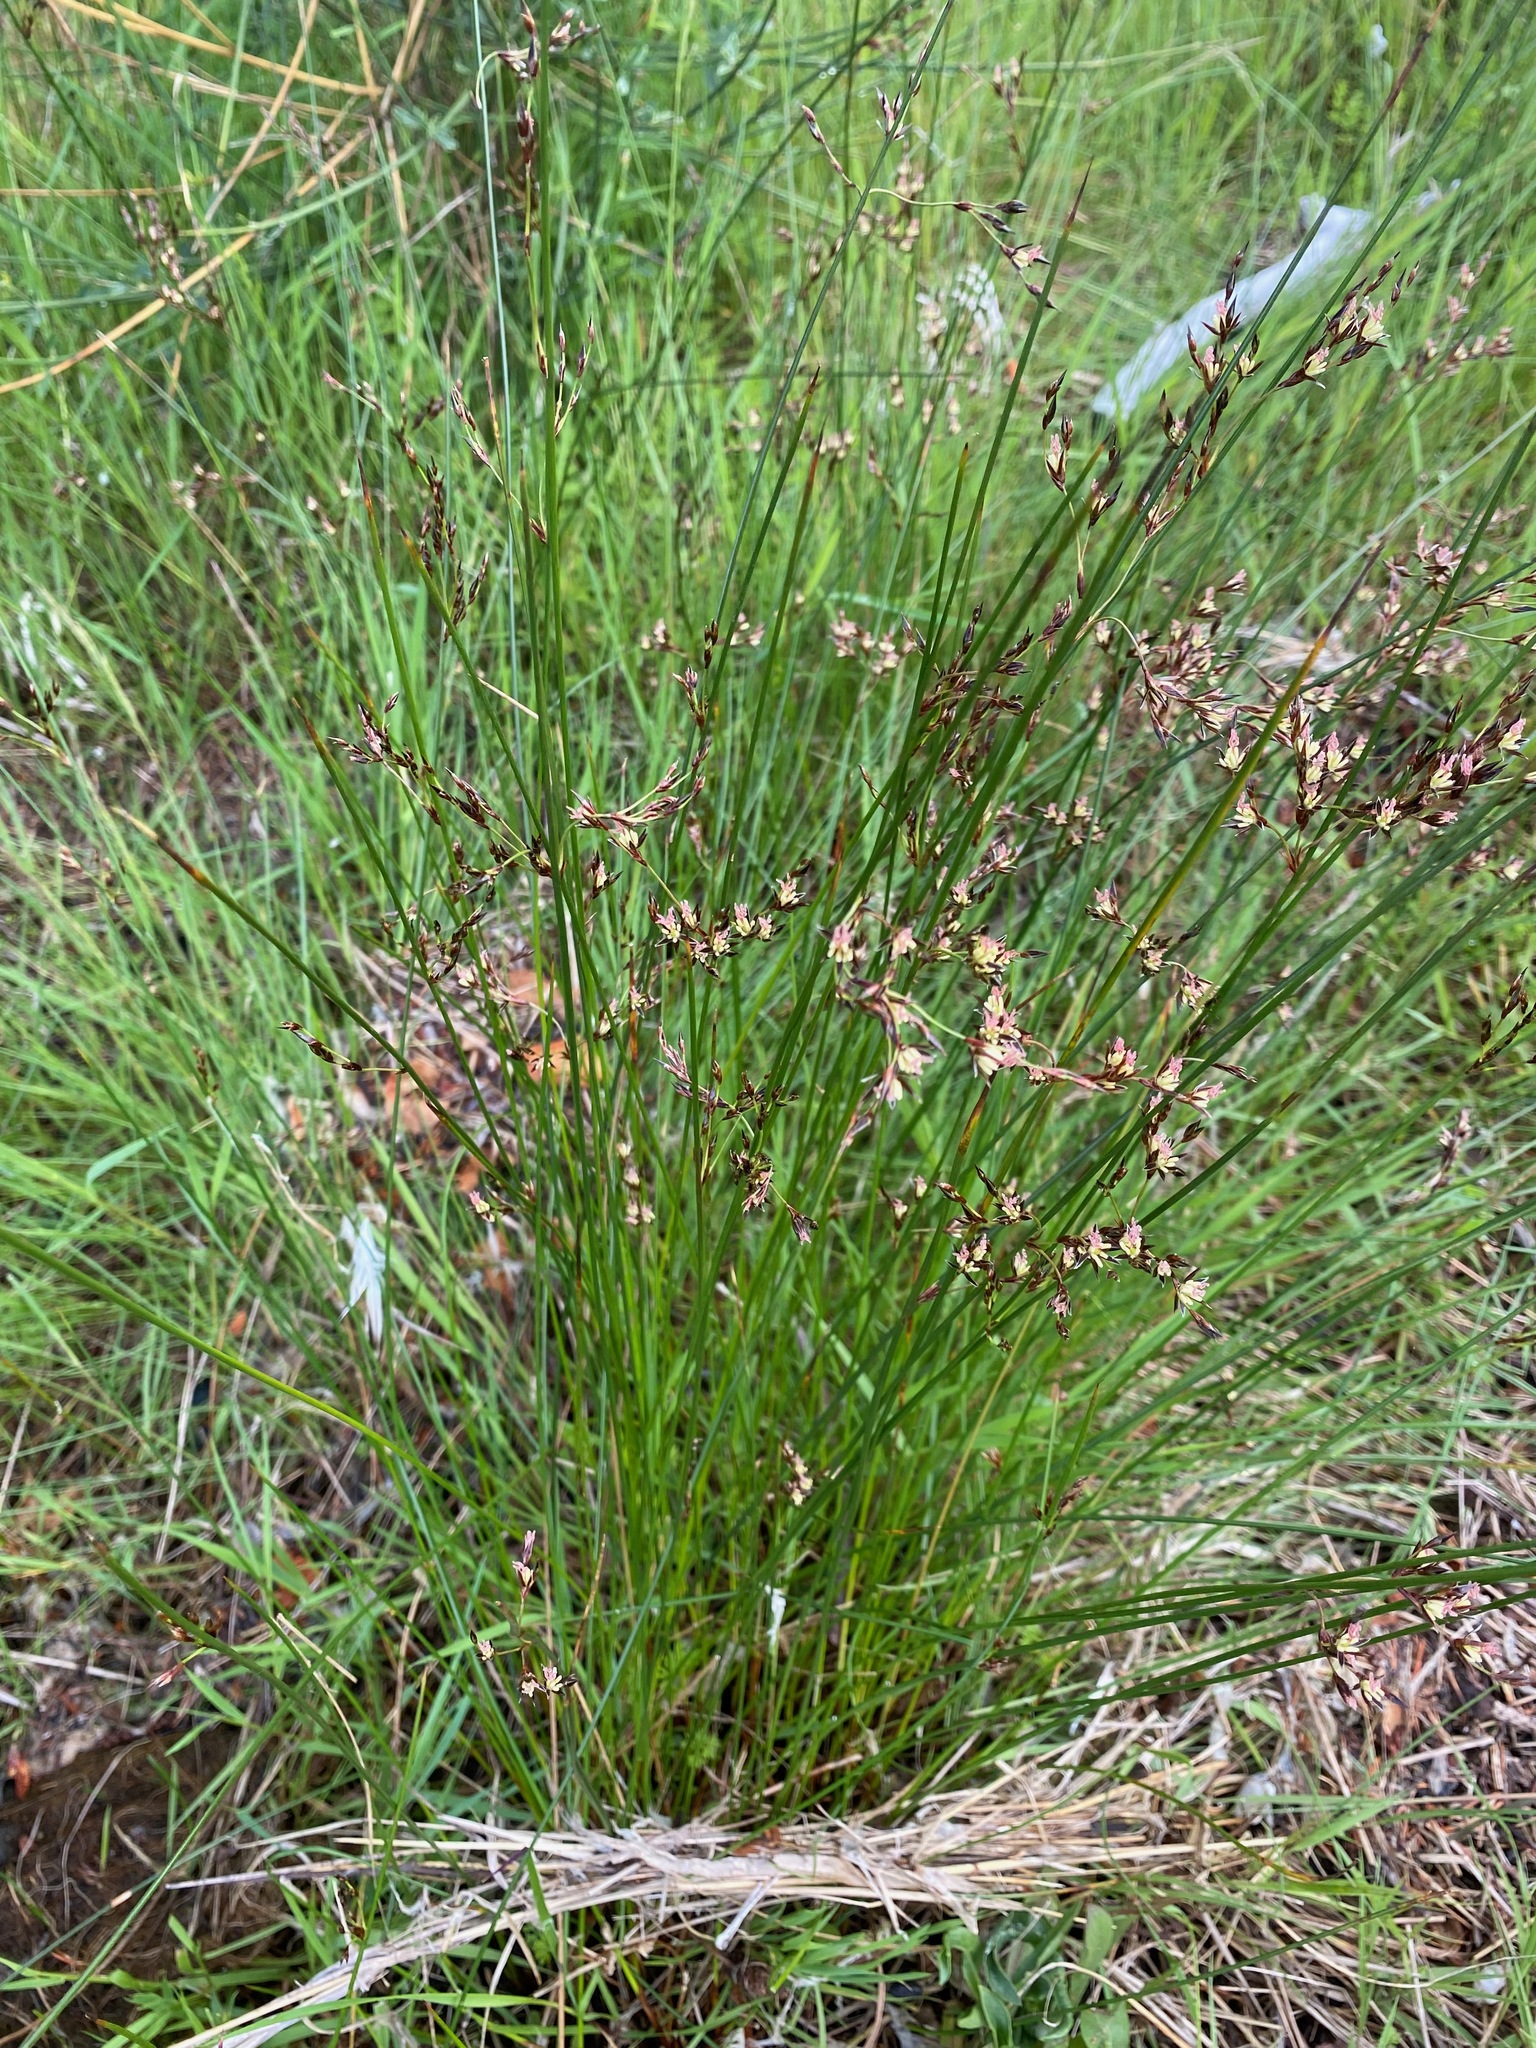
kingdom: Plantae
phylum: Tracheophyta
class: Liliopsida
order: Poales
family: Juncaceae
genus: Juncus
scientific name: Juncus balticus
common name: Baltic rush
